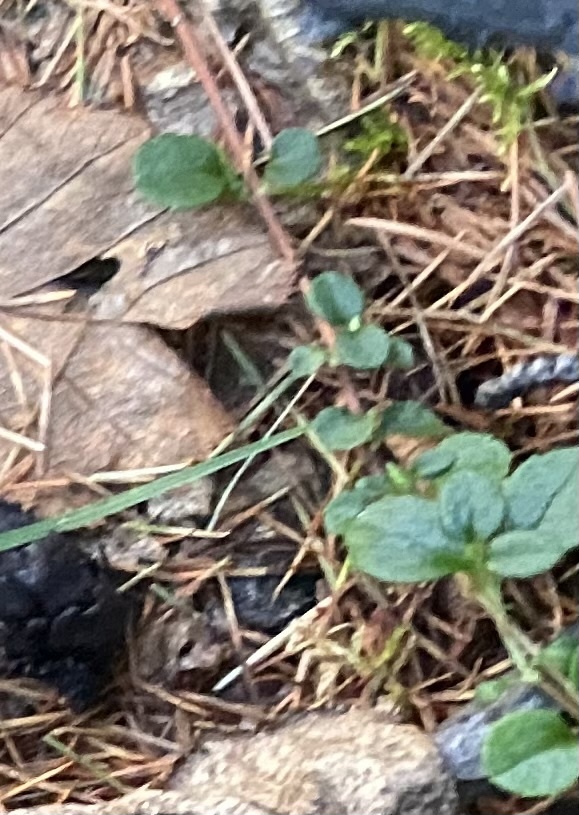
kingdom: Plantae
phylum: Tracheophyta
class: Magnoliopsida
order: Dipsacales
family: Caprifoliaceae
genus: Linnaea
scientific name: Linnaea borealis
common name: Twinflower
